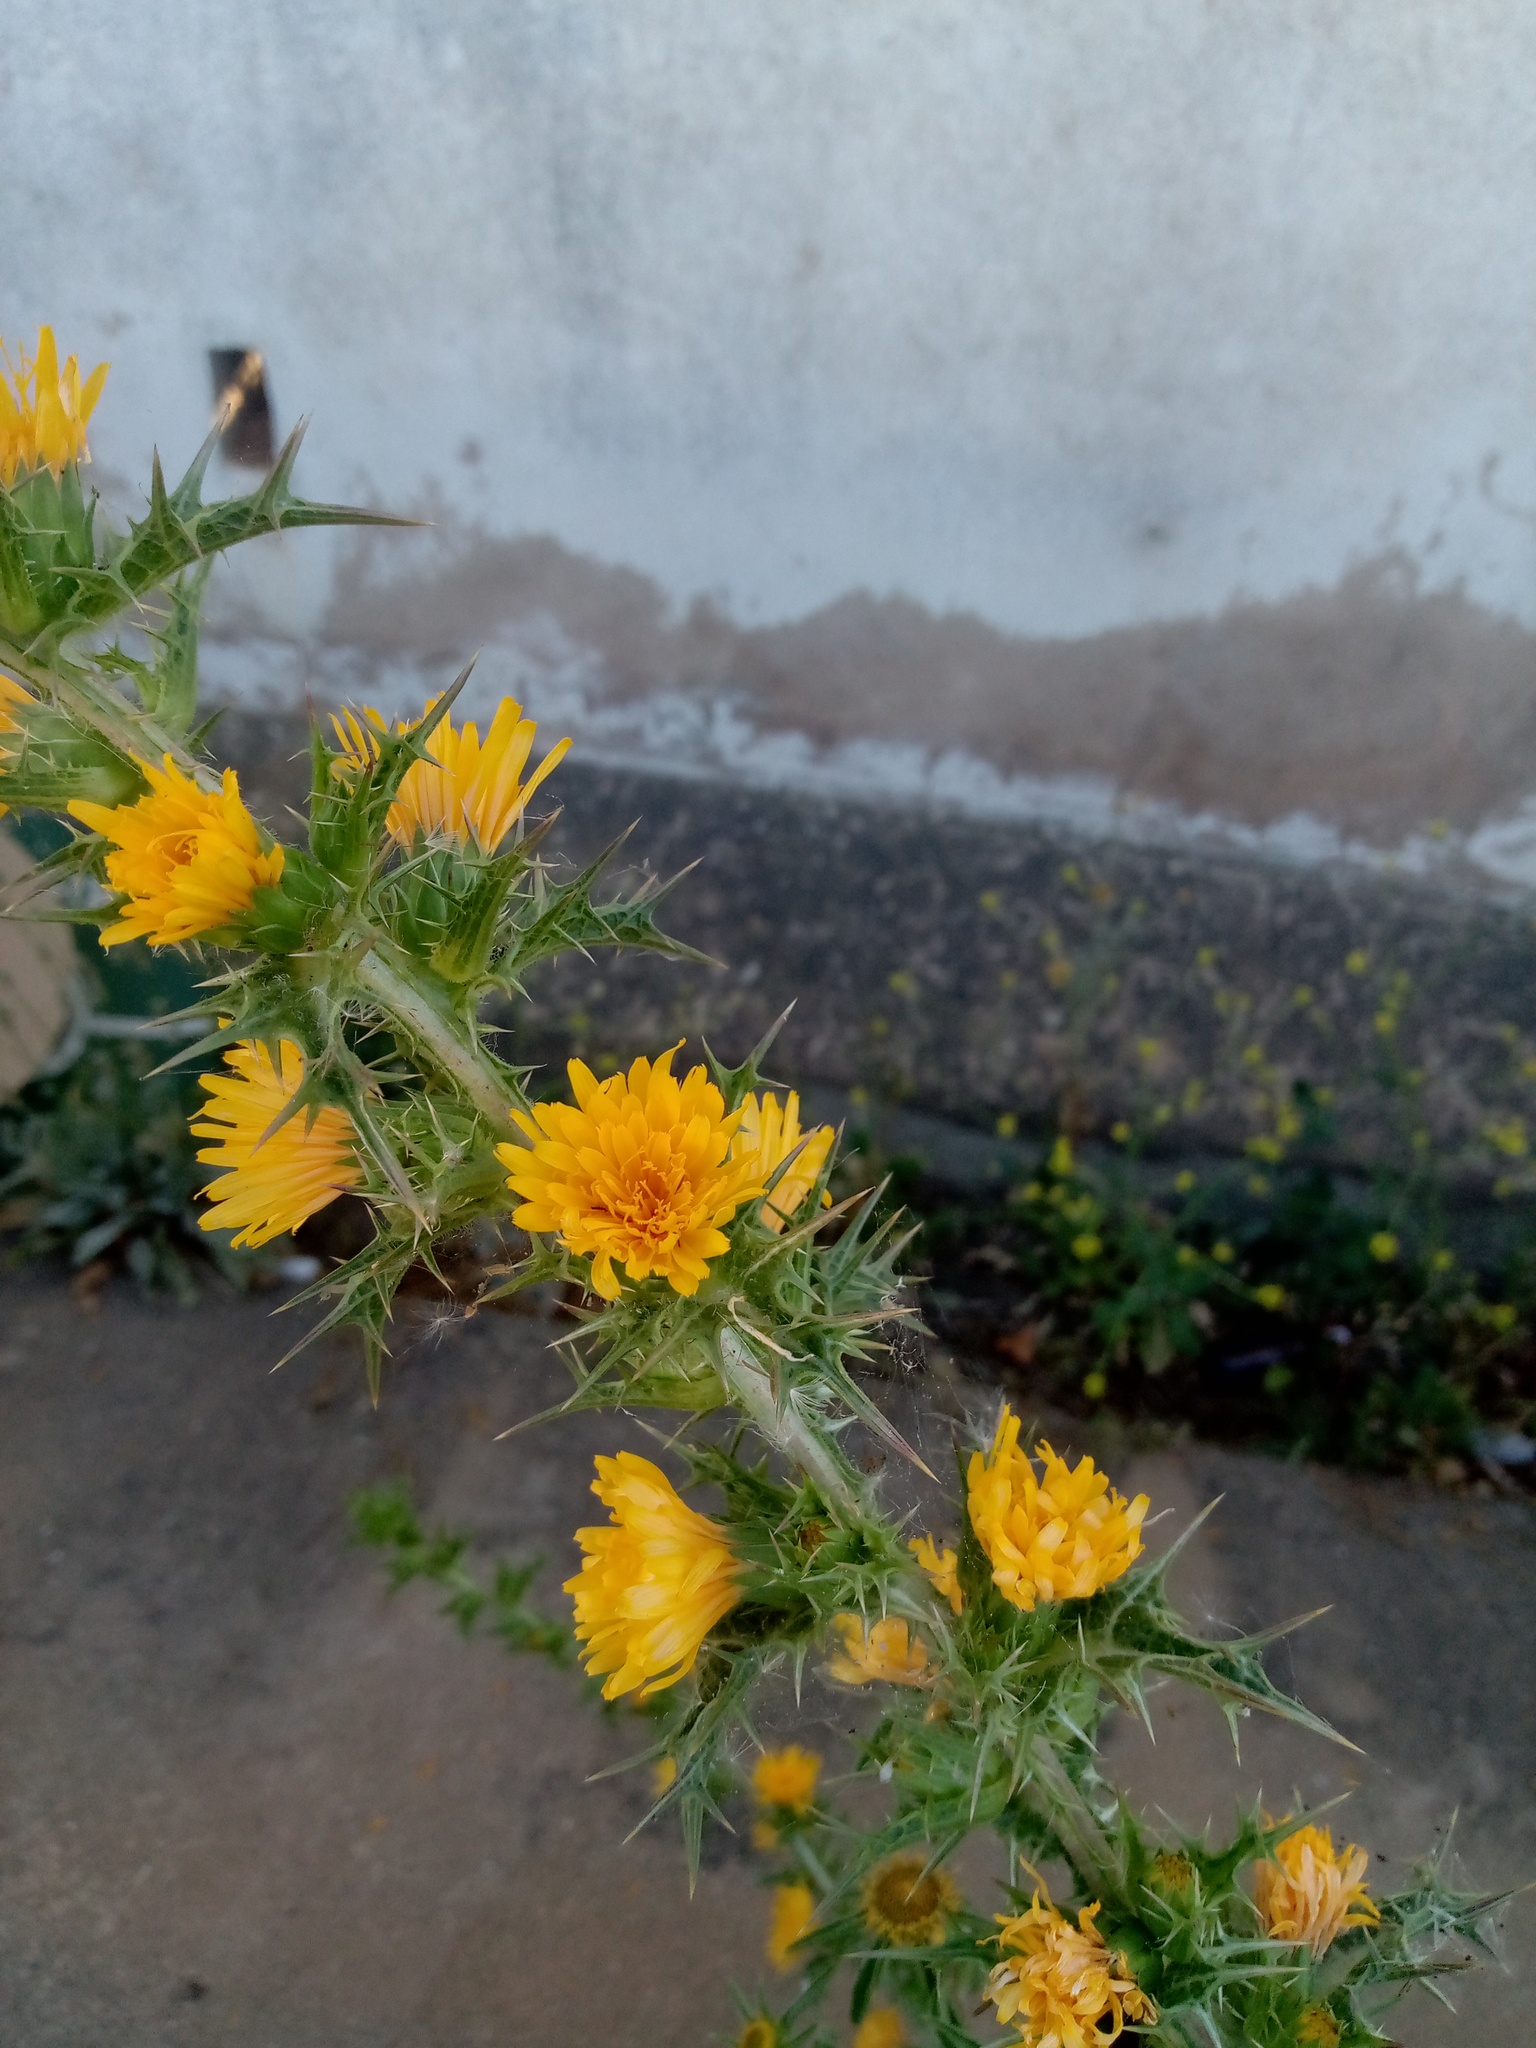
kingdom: Plantae
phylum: Tracheophyta
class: Magnoliopsida
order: Asterales
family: Asteraceae
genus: Scolymus
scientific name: Scolymus hispanicus
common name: Golden thistle
